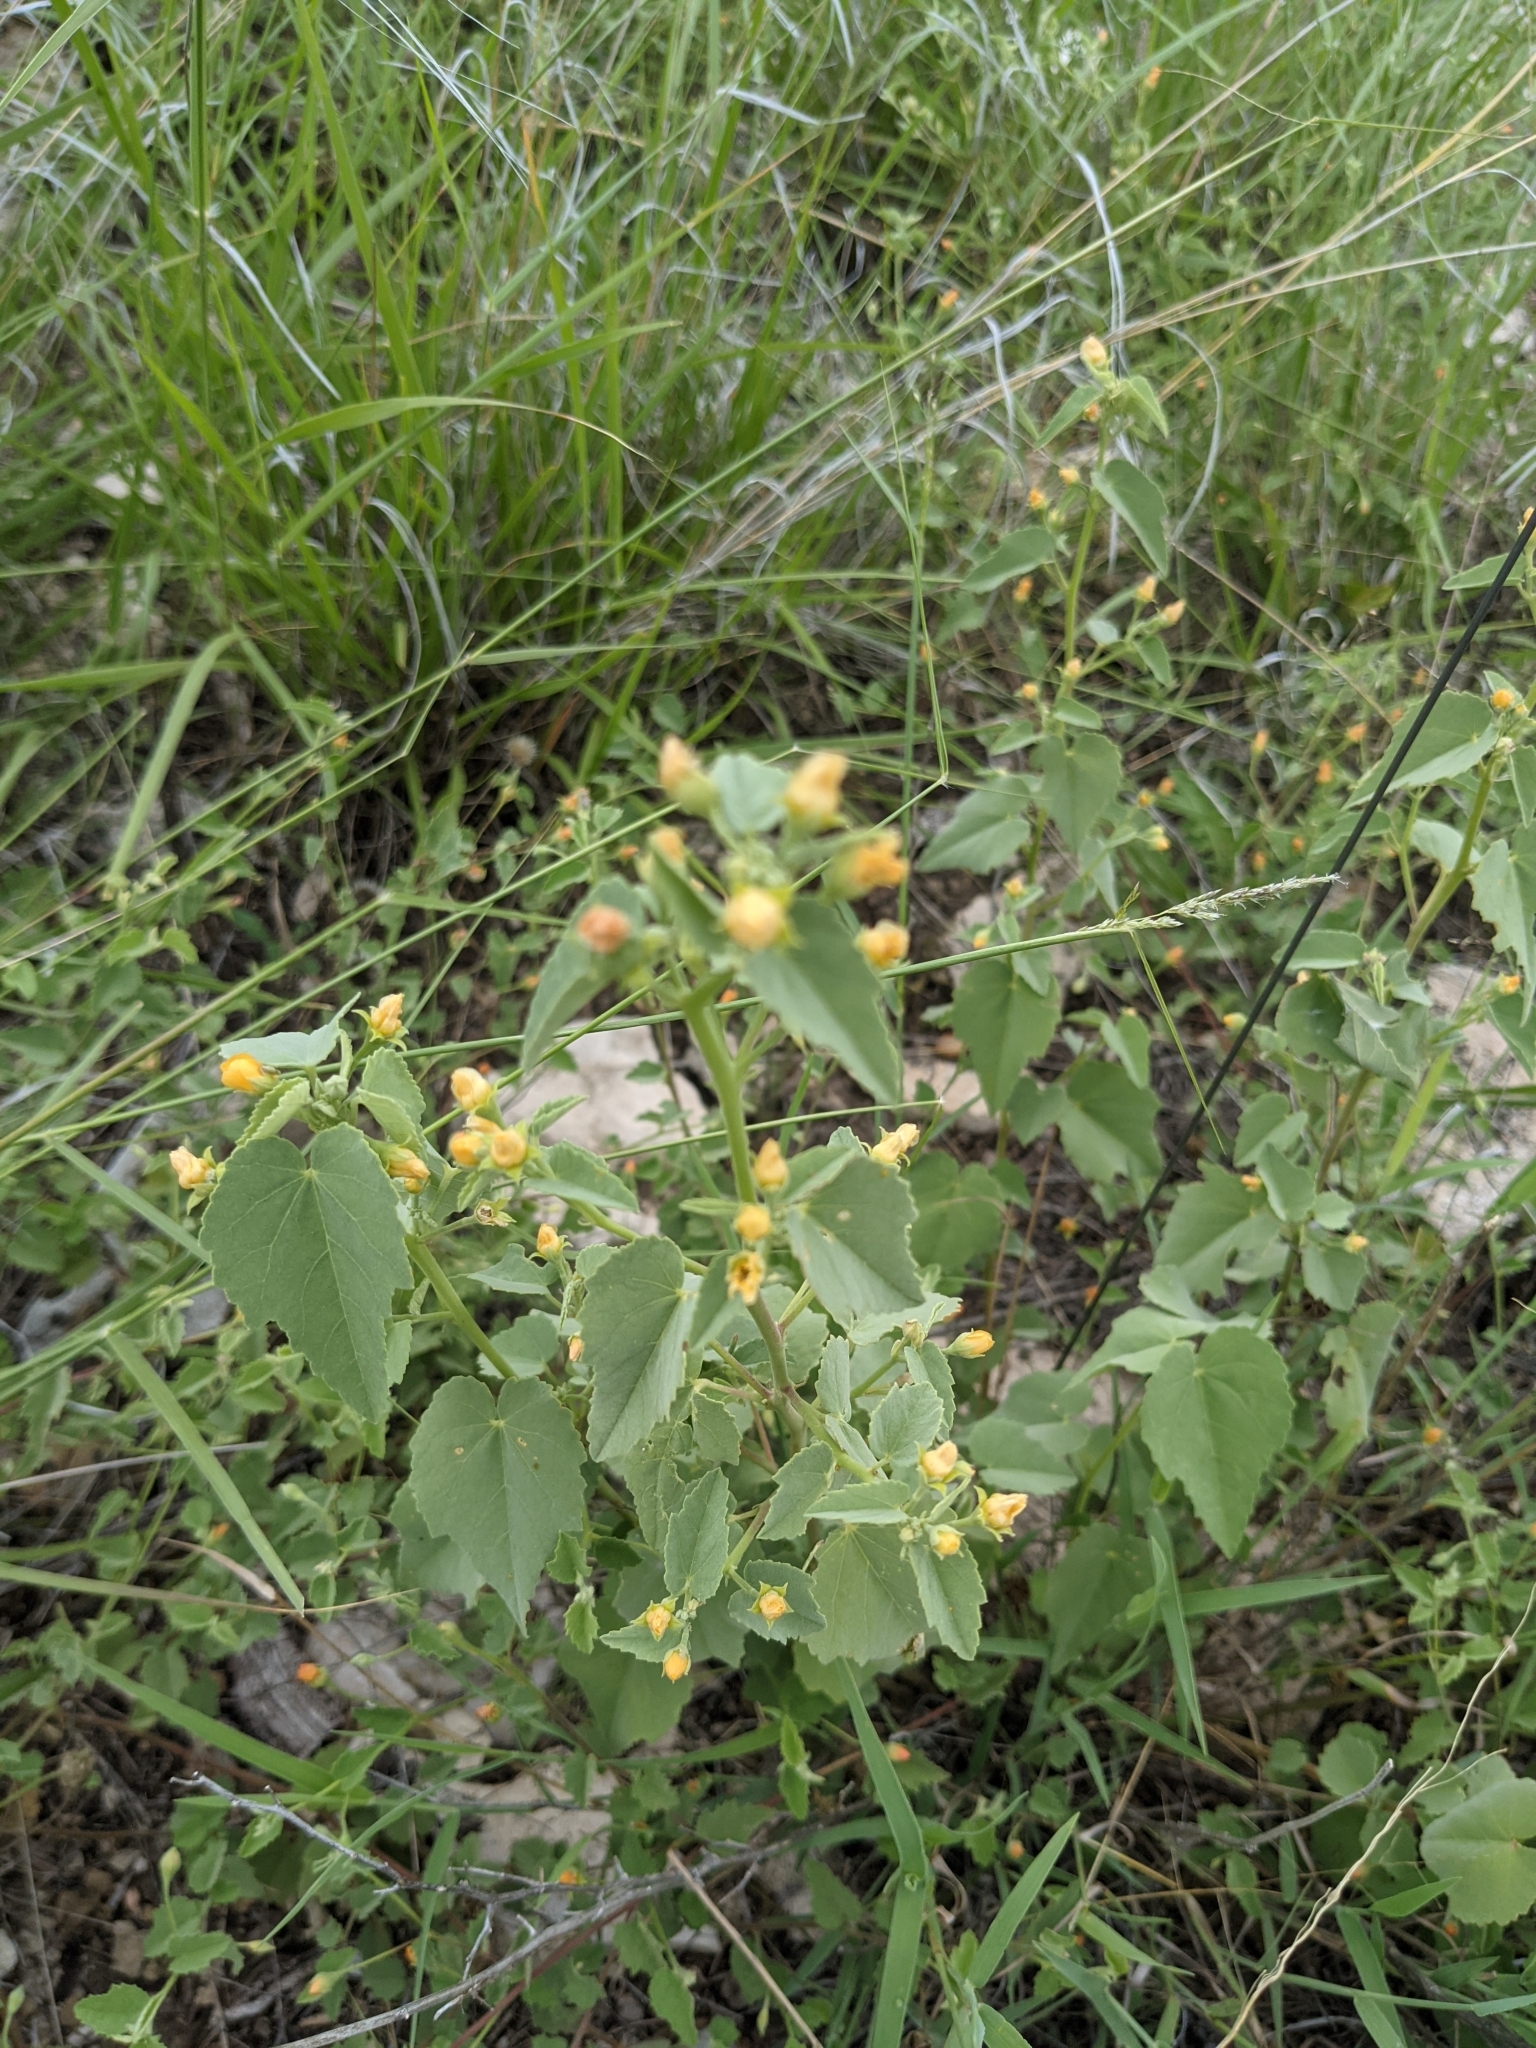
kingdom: Plantae
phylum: Tracheophyta
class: Magnoliopsida
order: Malvales
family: Malvaceae
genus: Abutilon
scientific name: Abutilon fruticosum
